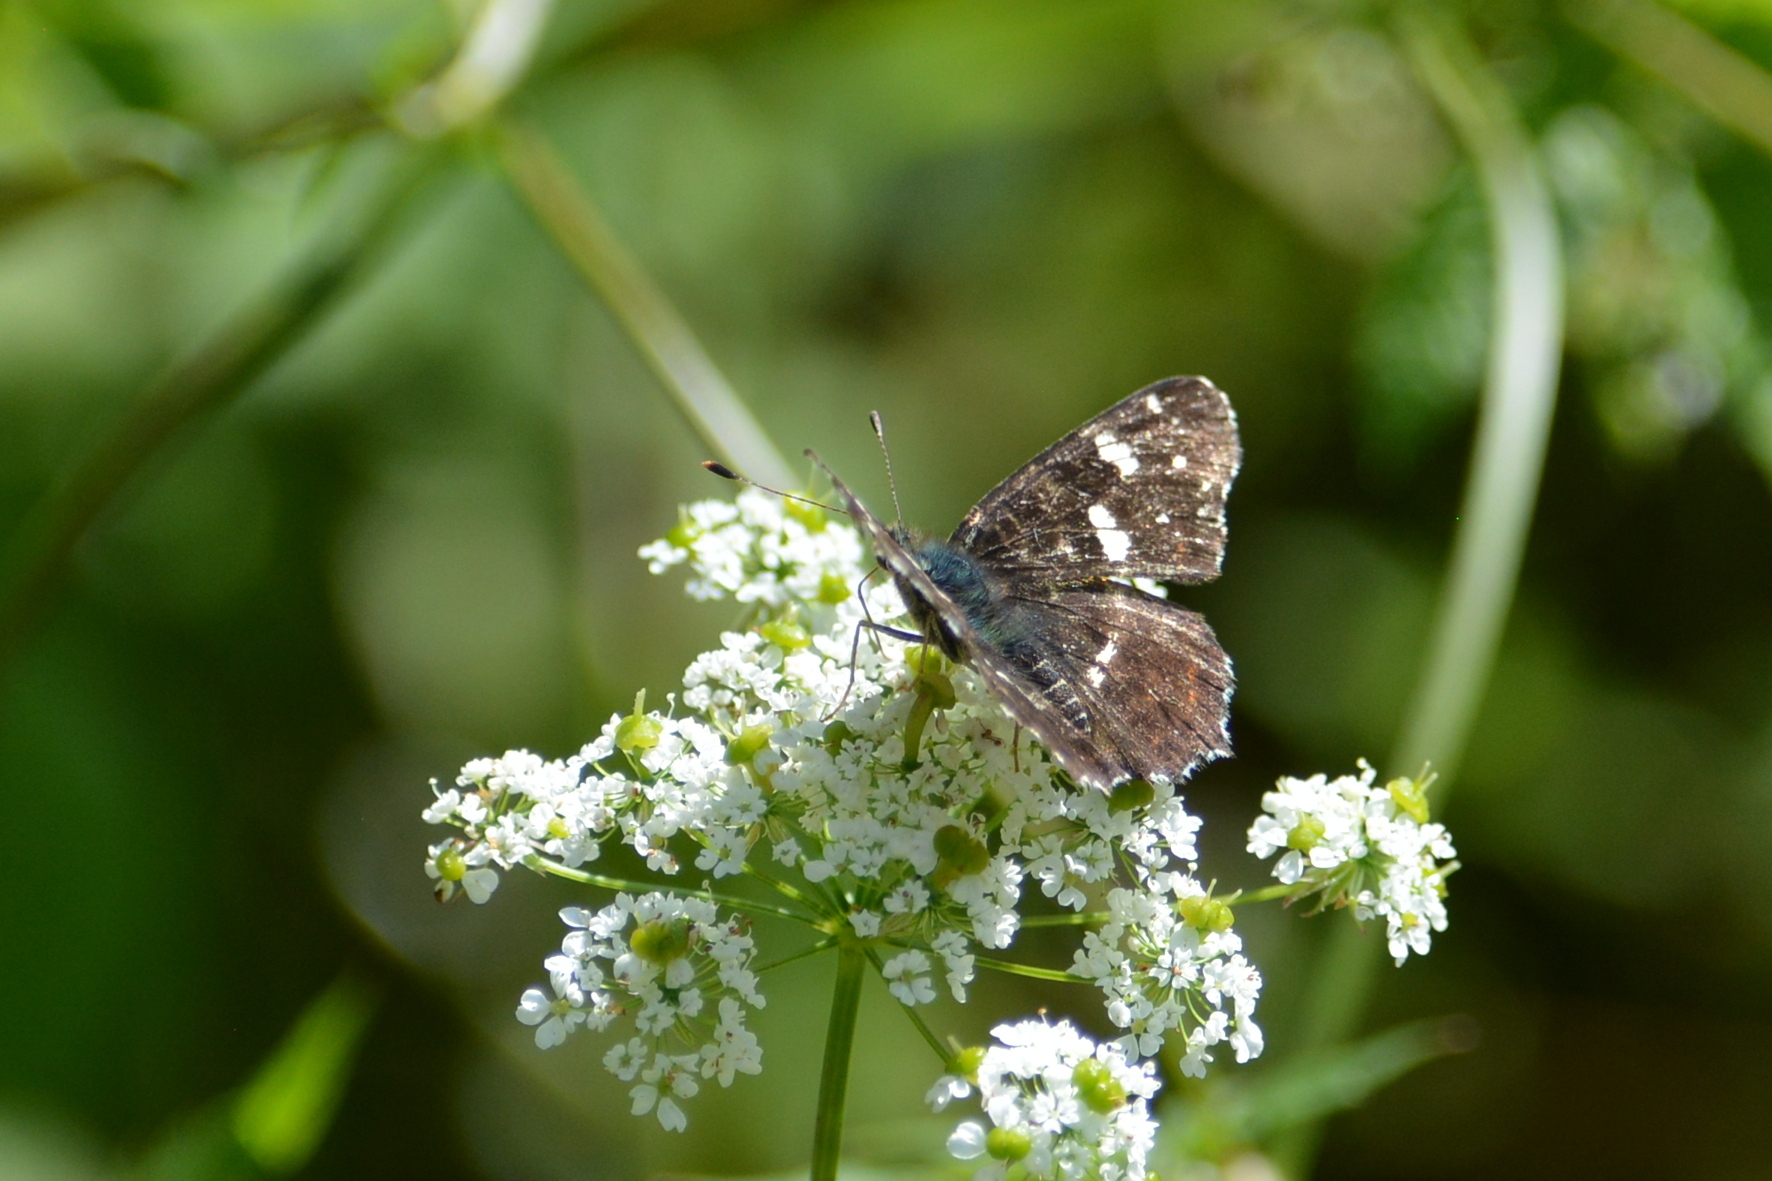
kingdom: Animalia
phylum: Arthropoda
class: Insecta
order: Lepidoptera
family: Nymphalidae
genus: Araschnia
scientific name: Araschnia levana
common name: Map butterfly
